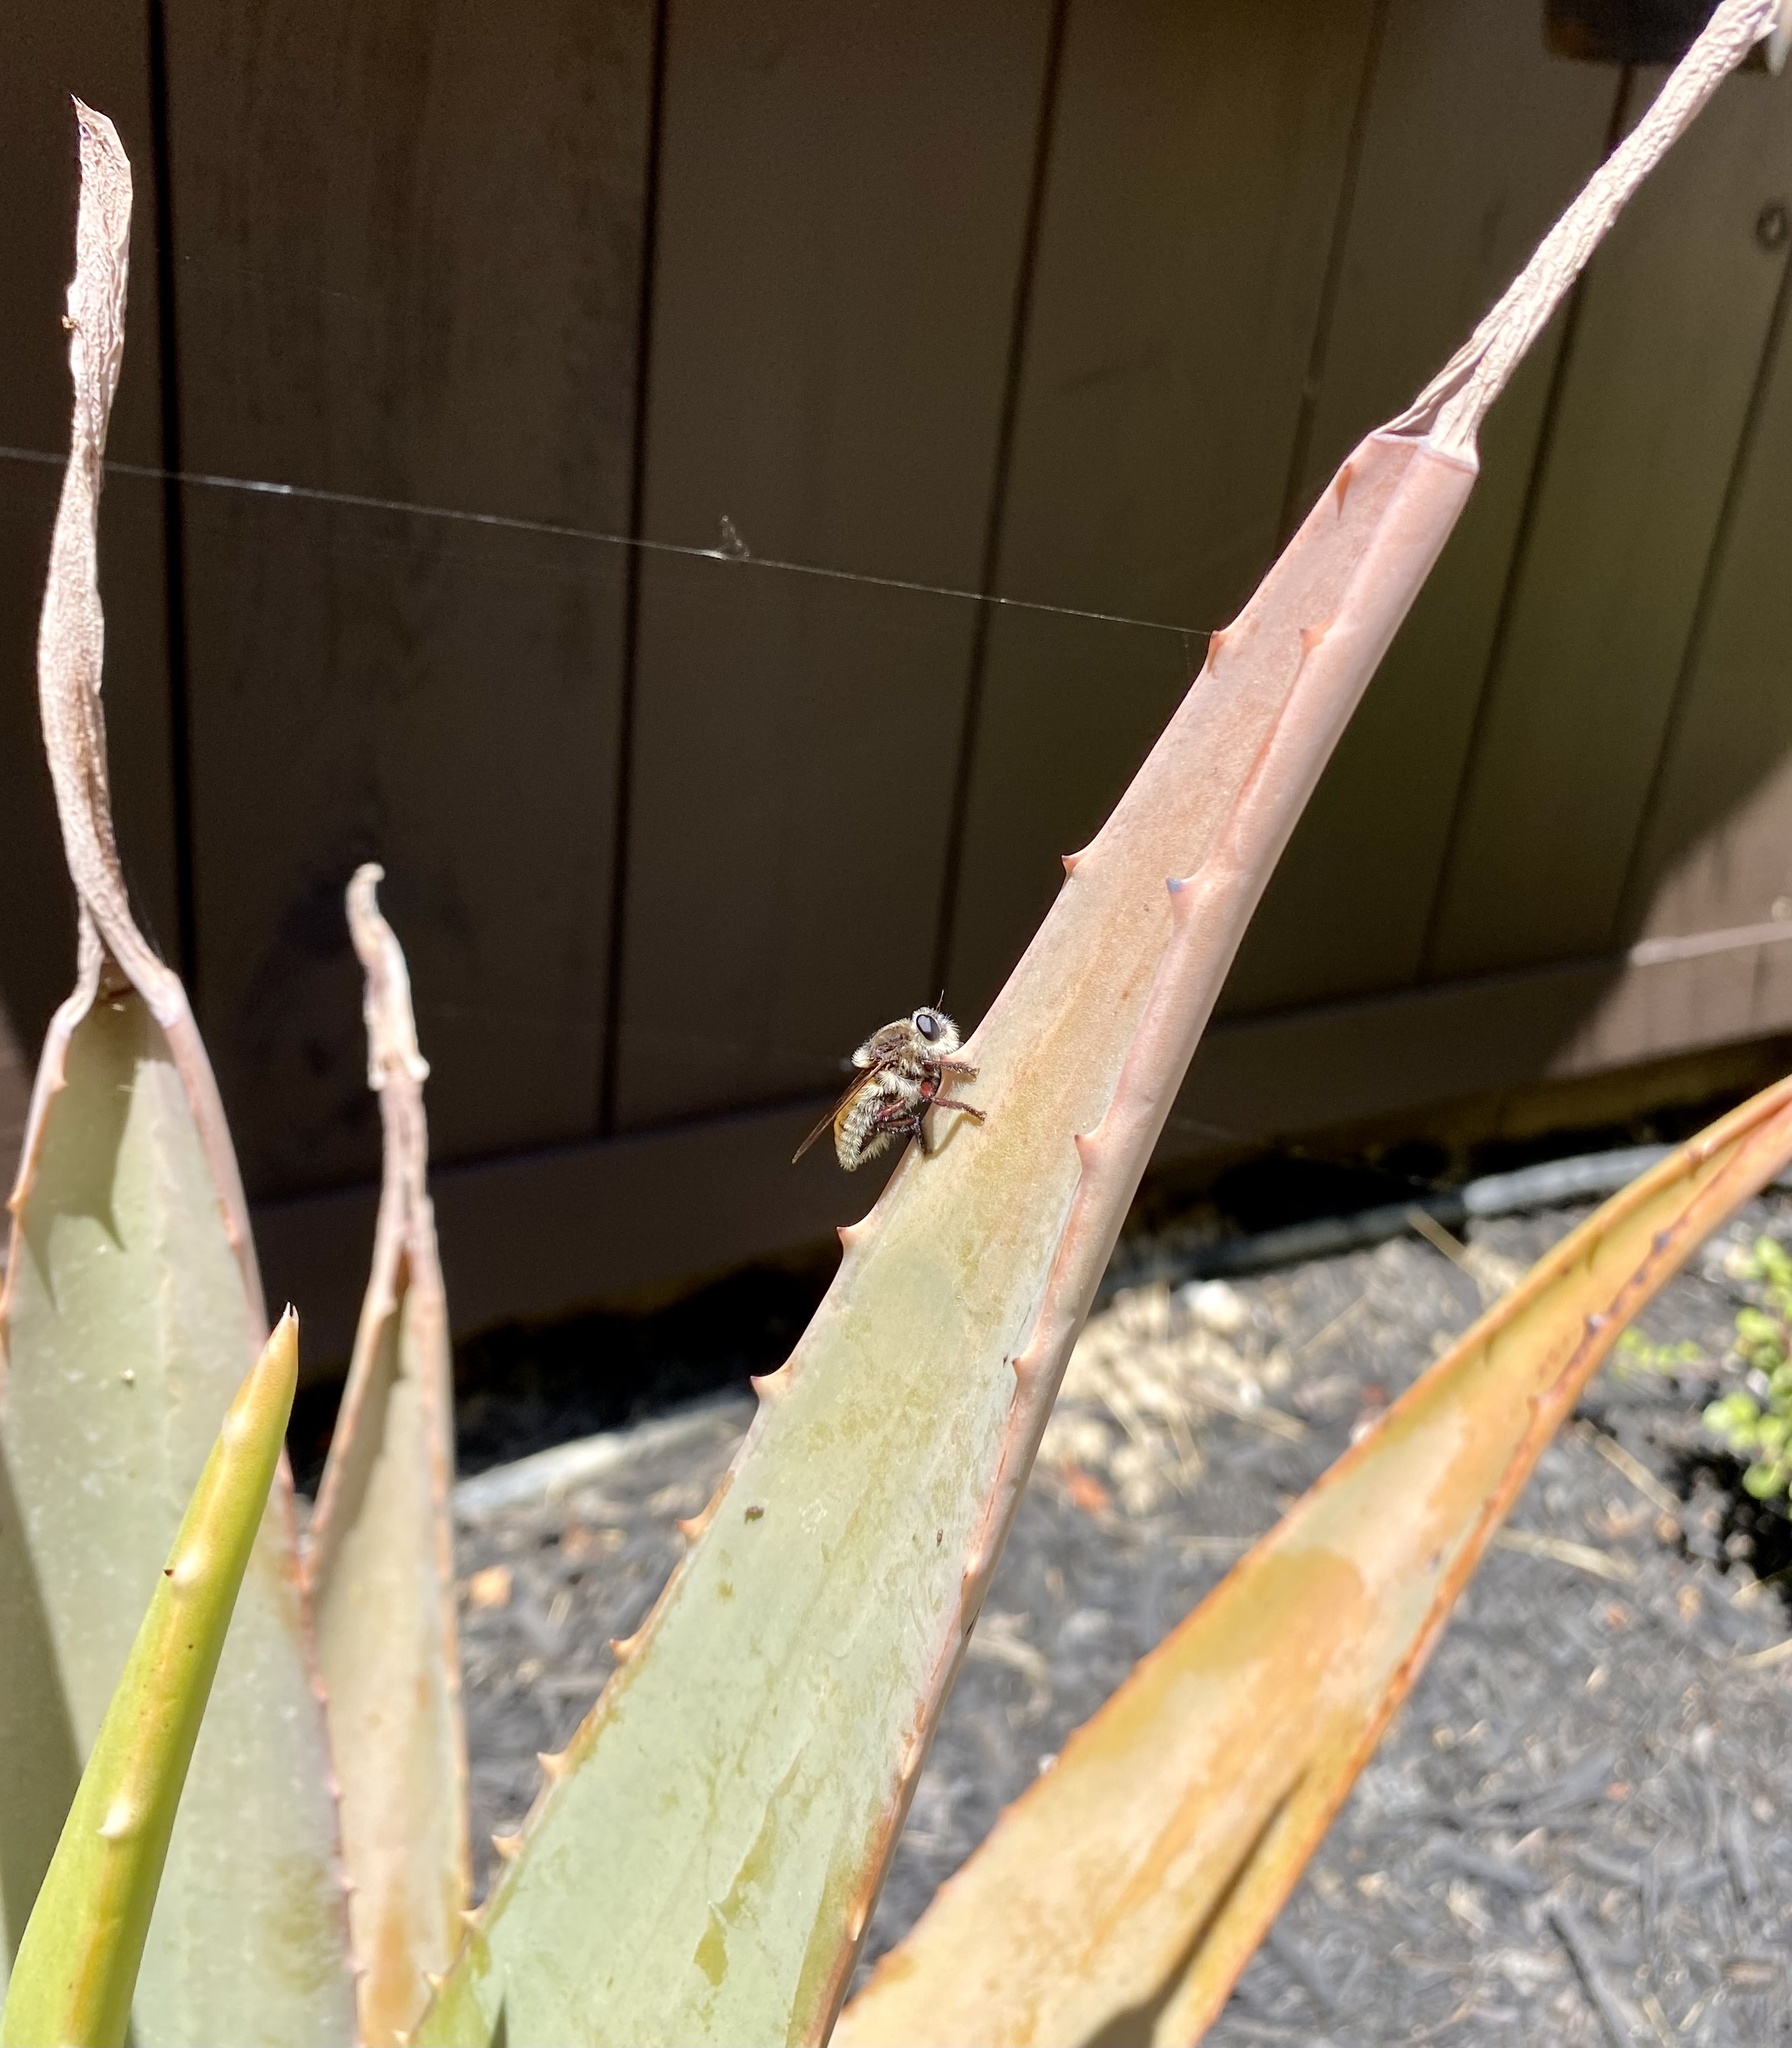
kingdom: Animalia
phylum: Arthropoda
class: Insecta
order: Diptera
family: Asilidae
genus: Mallophora
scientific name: Mallophora fautrix
